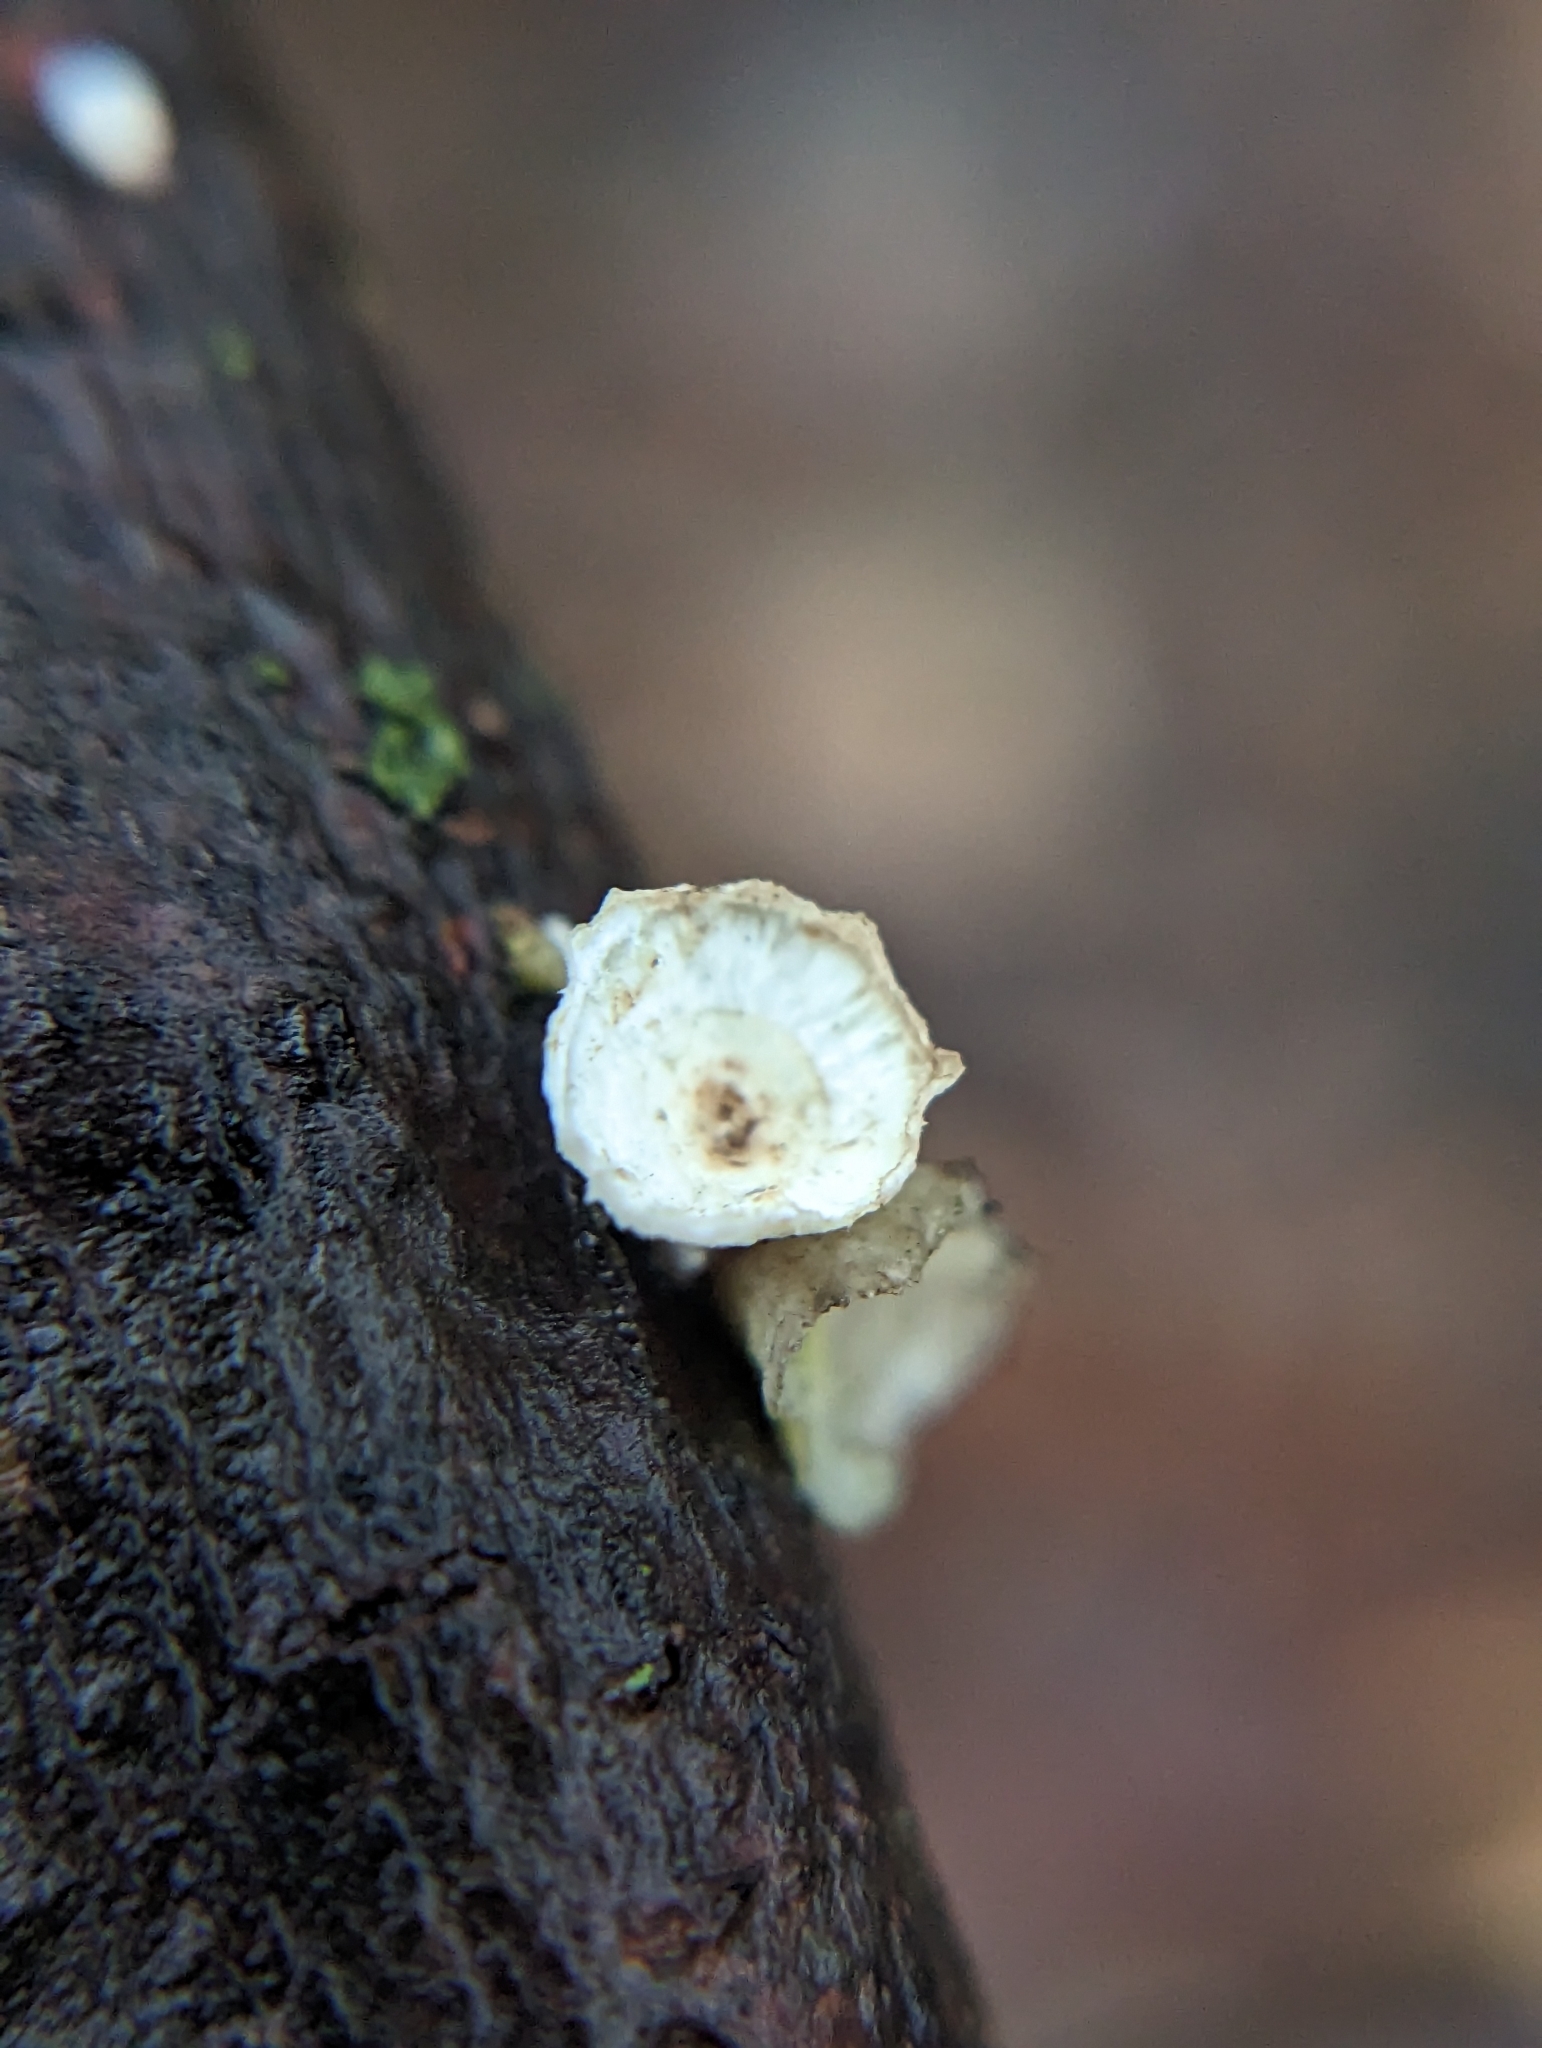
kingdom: Fungi
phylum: Basidiomycota
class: Agaricomycetes
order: Polyporales
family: Polyporaceae
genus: Poronidulus
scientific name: Poronidulus conchifer
